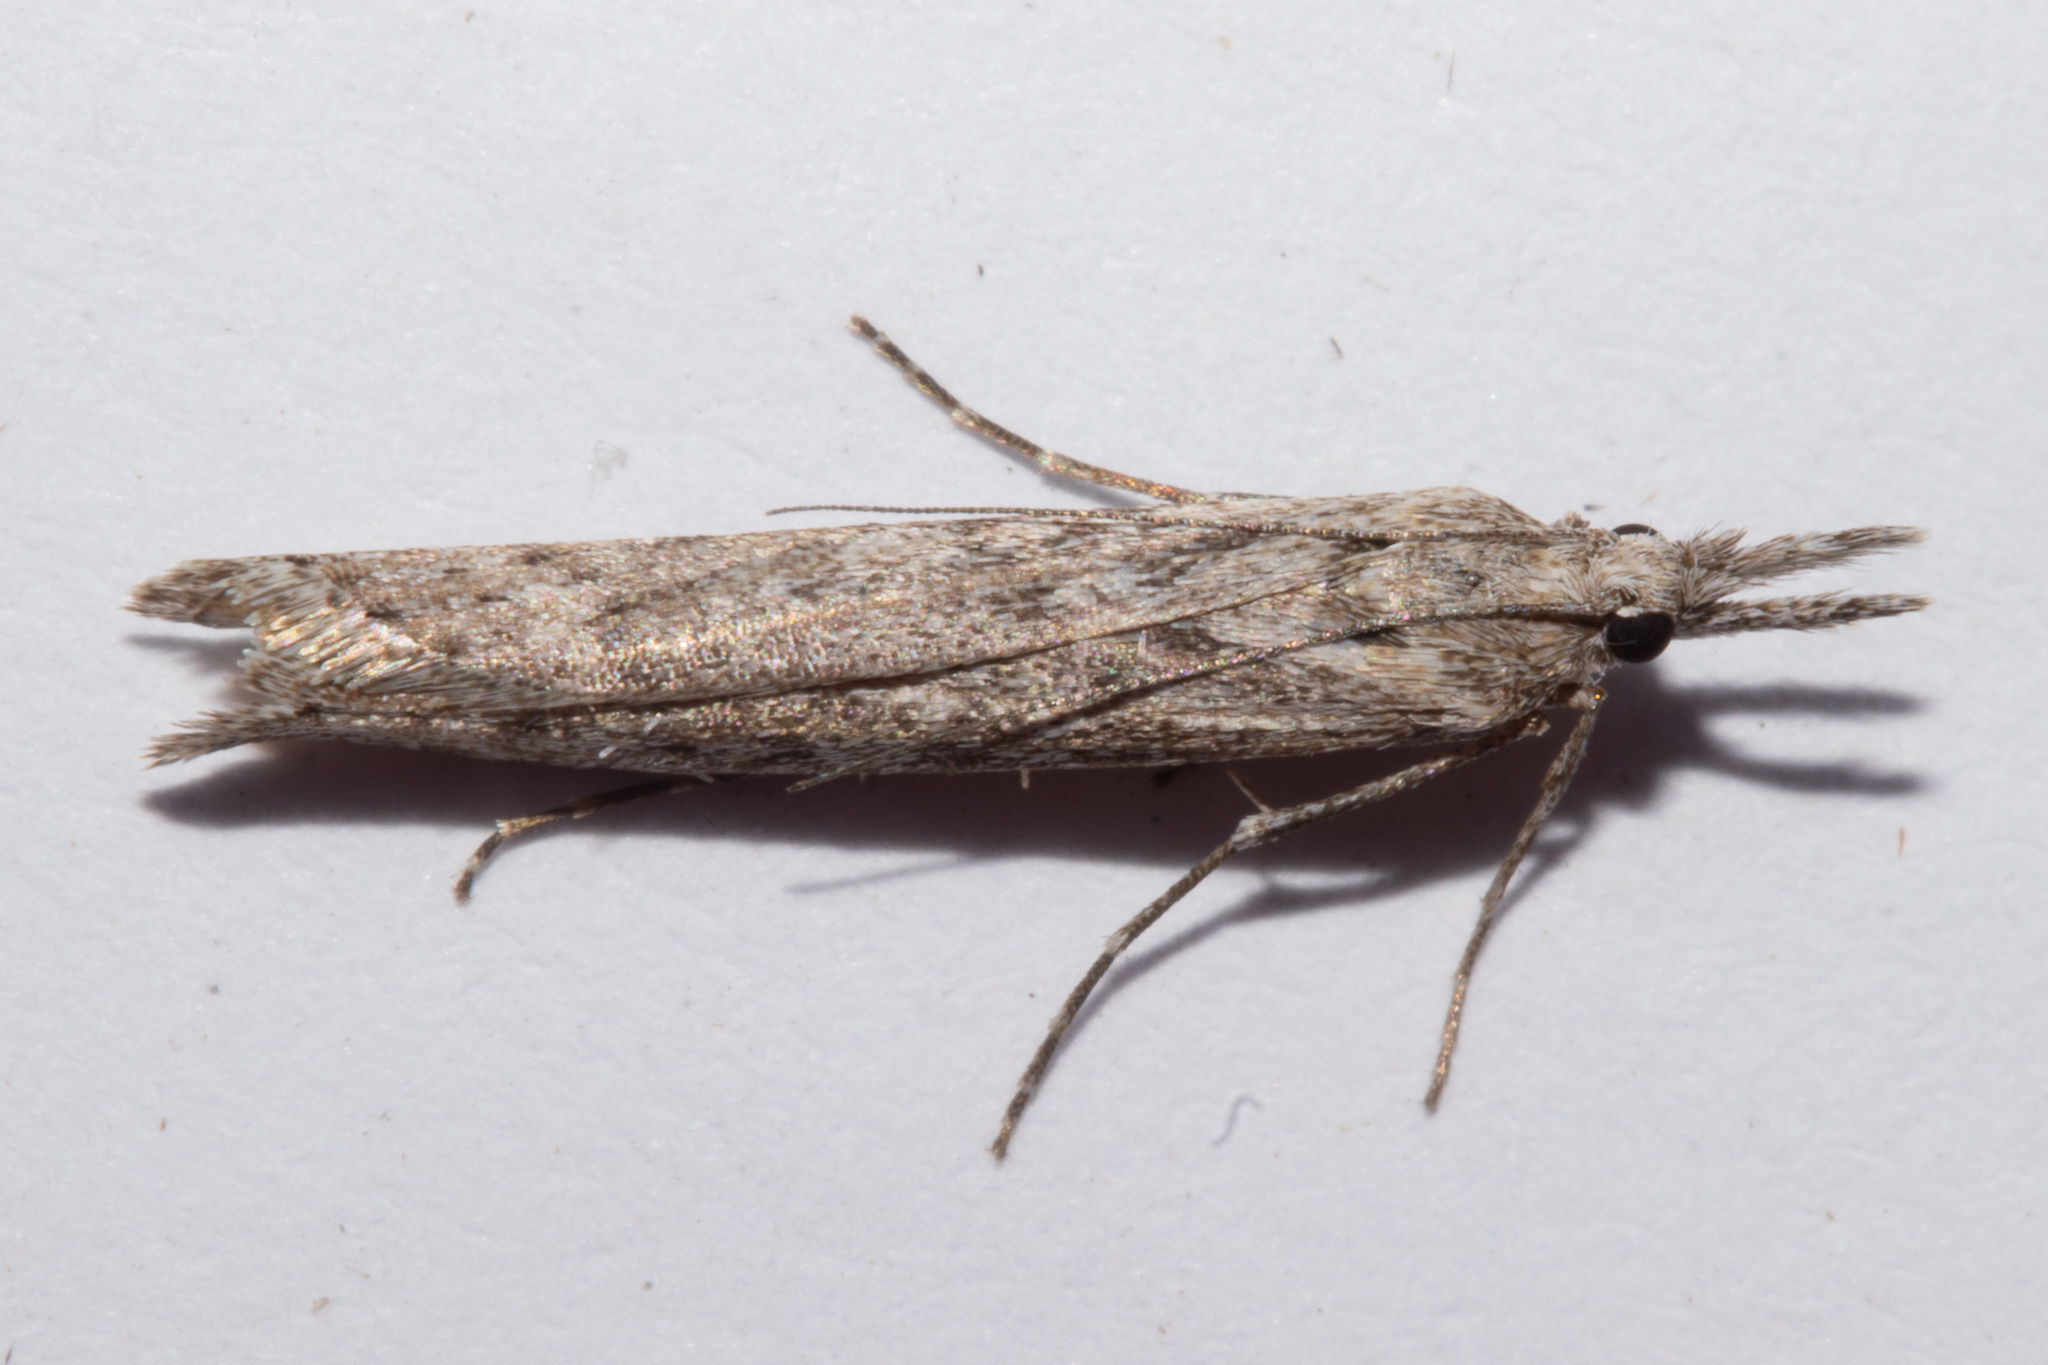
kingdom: Animalia
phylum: Arthropoda
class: Insecta
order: Lepidoptera
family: Crambidae
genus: Orocrambus
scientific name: Orocrambus cyclopicus
